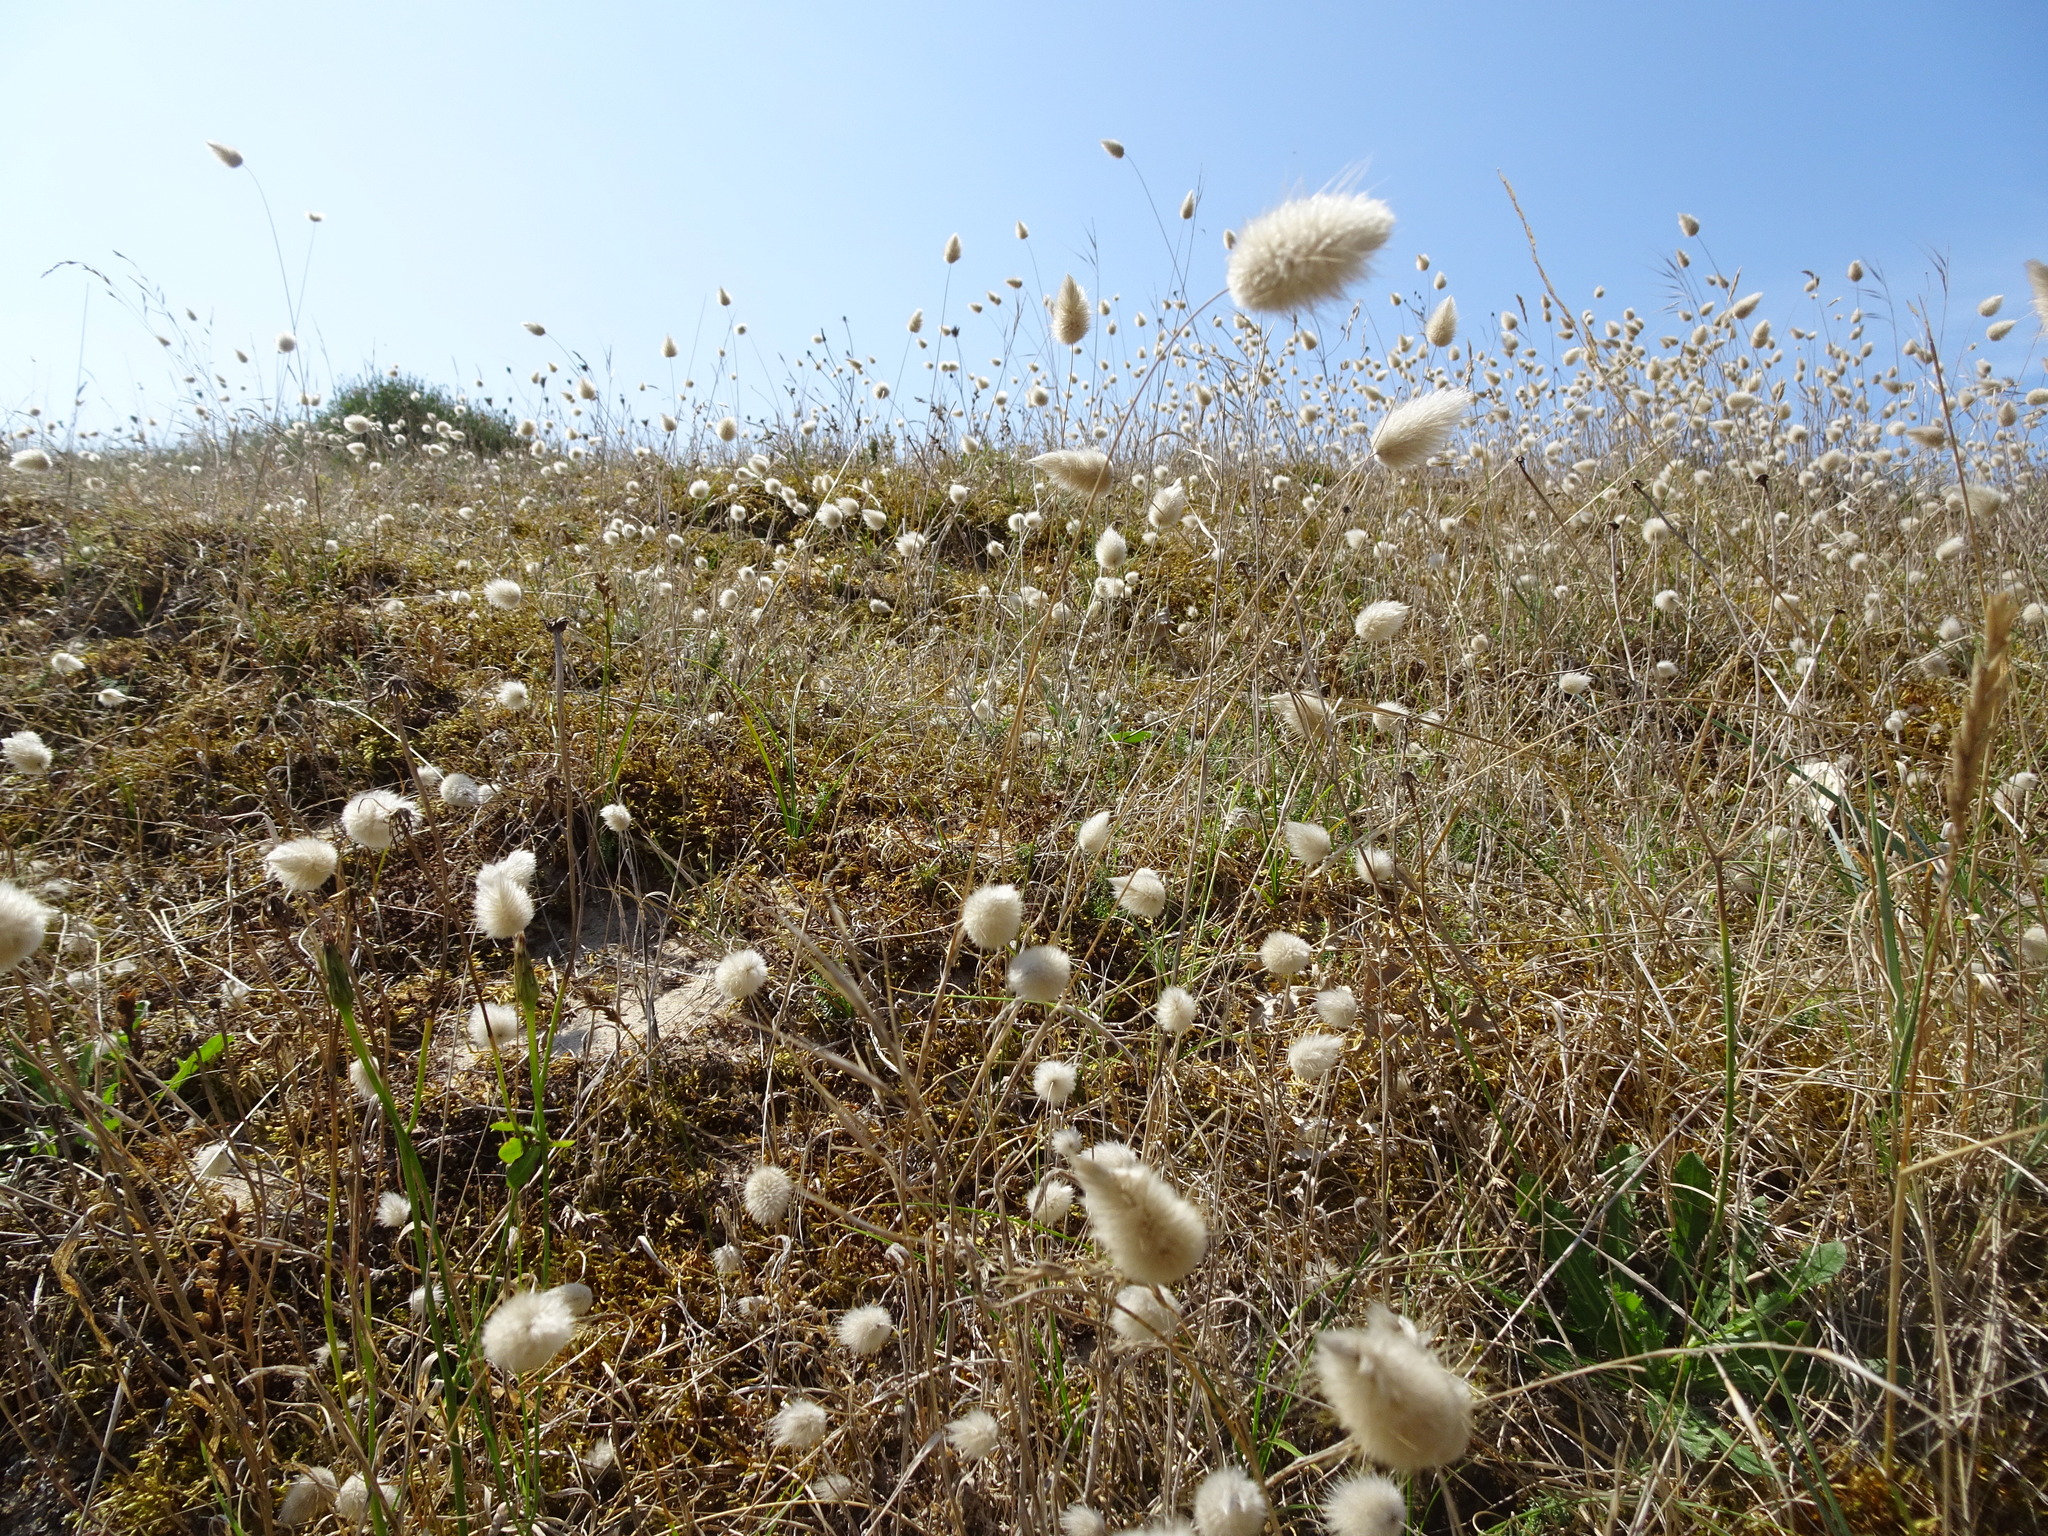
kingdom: Plantae
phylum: Tracheophyta
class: Liliopsida
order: Poales
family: Poaceae
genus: Lagurus
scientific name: Lagurus ovatus
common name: Hare's-tail
